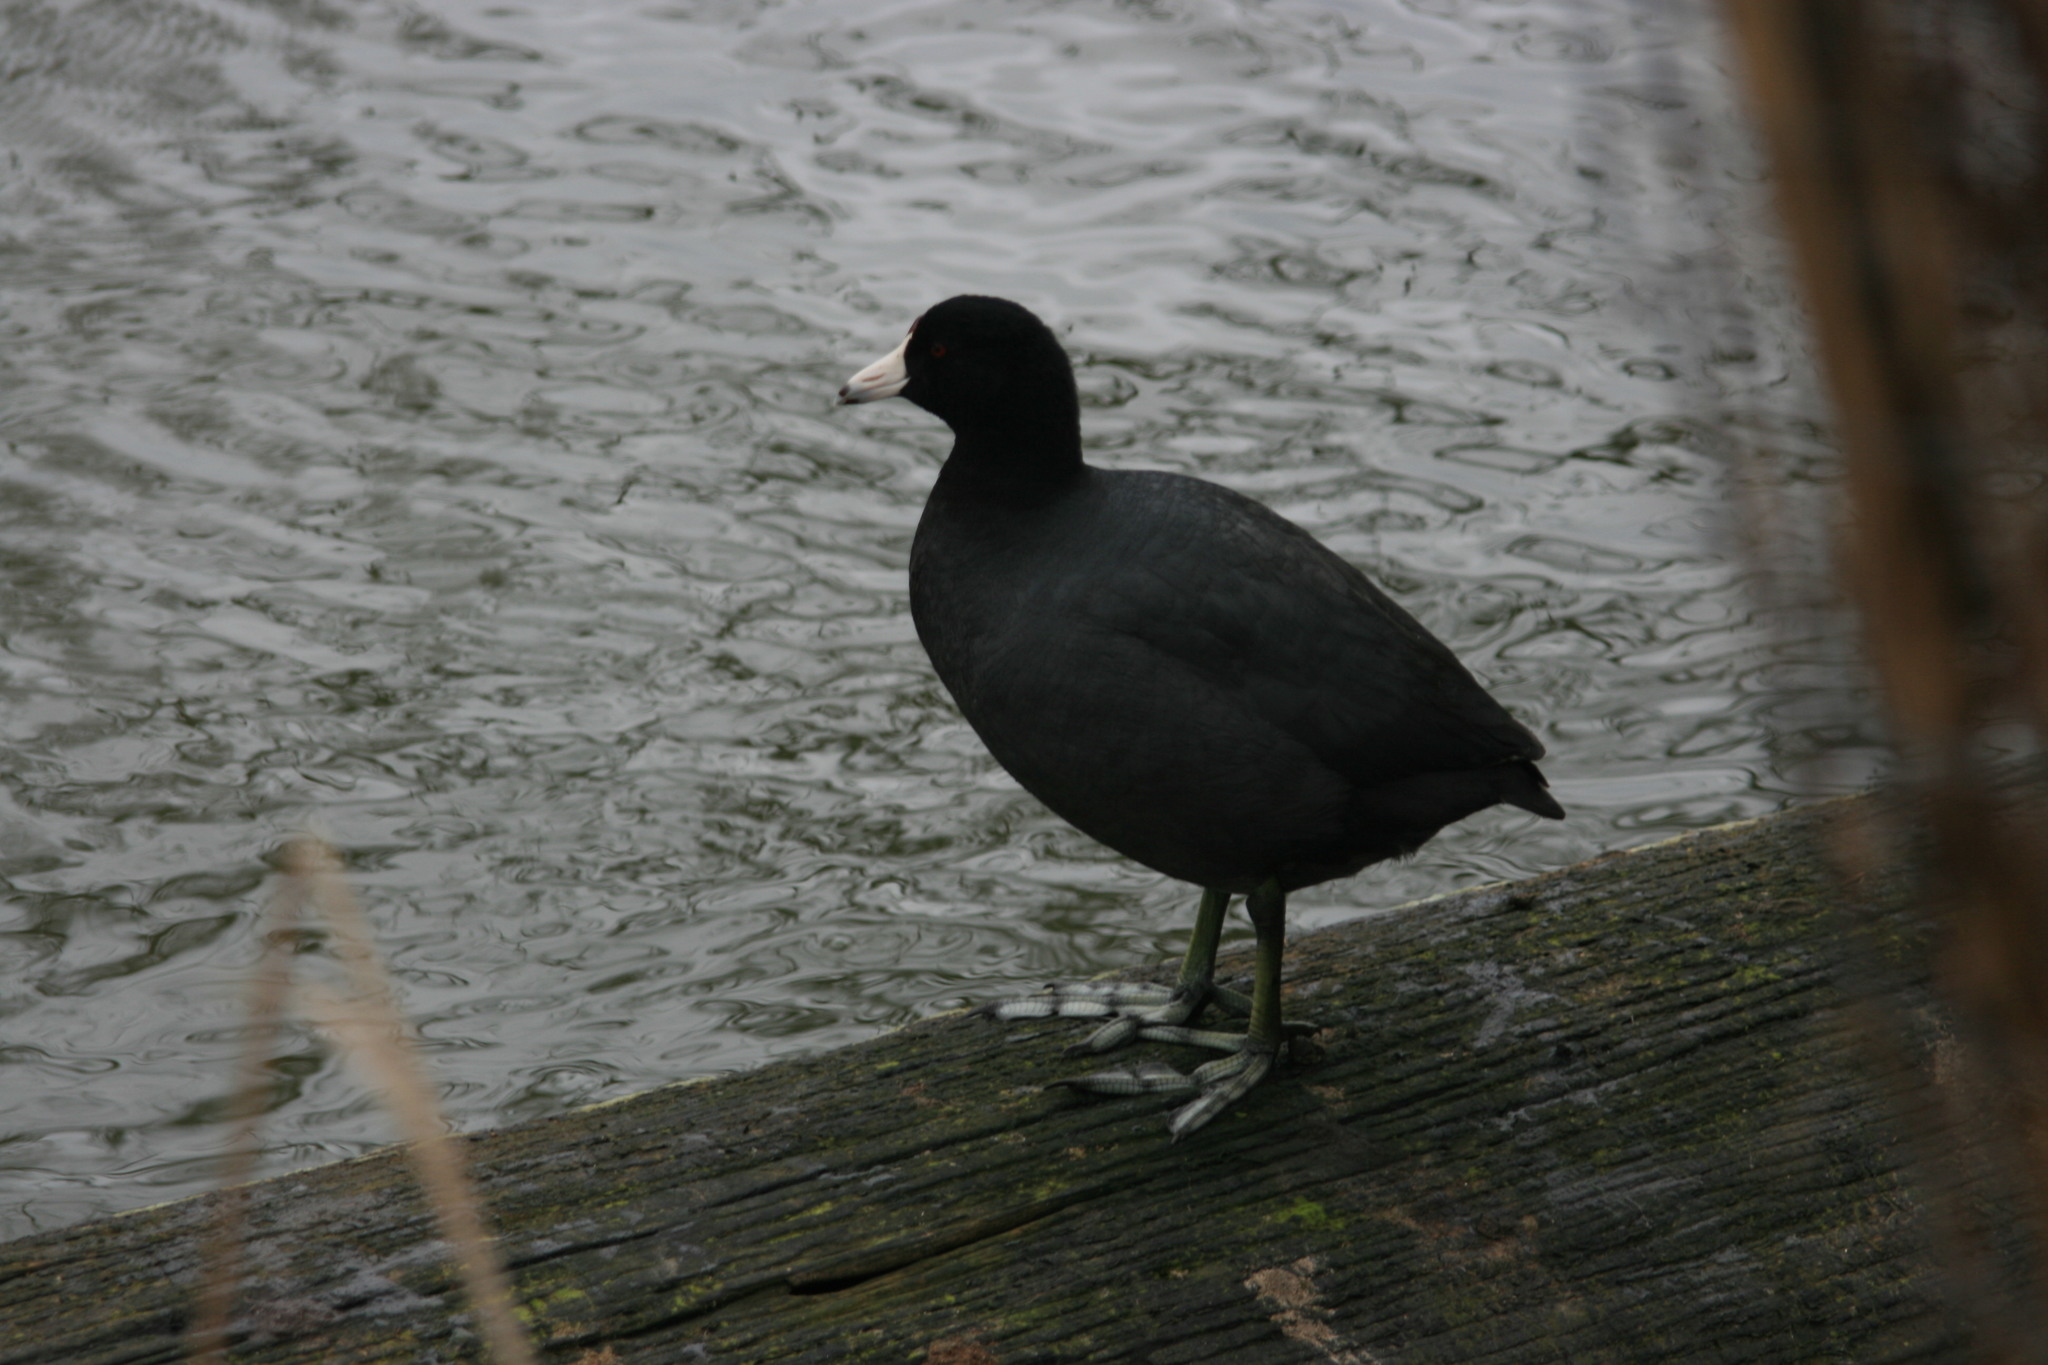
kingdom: Animalia
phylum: Chordata
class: Aves
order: Gruiformes
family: Rallidae
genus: Fulica
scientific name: Fulica americana
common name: American coot
